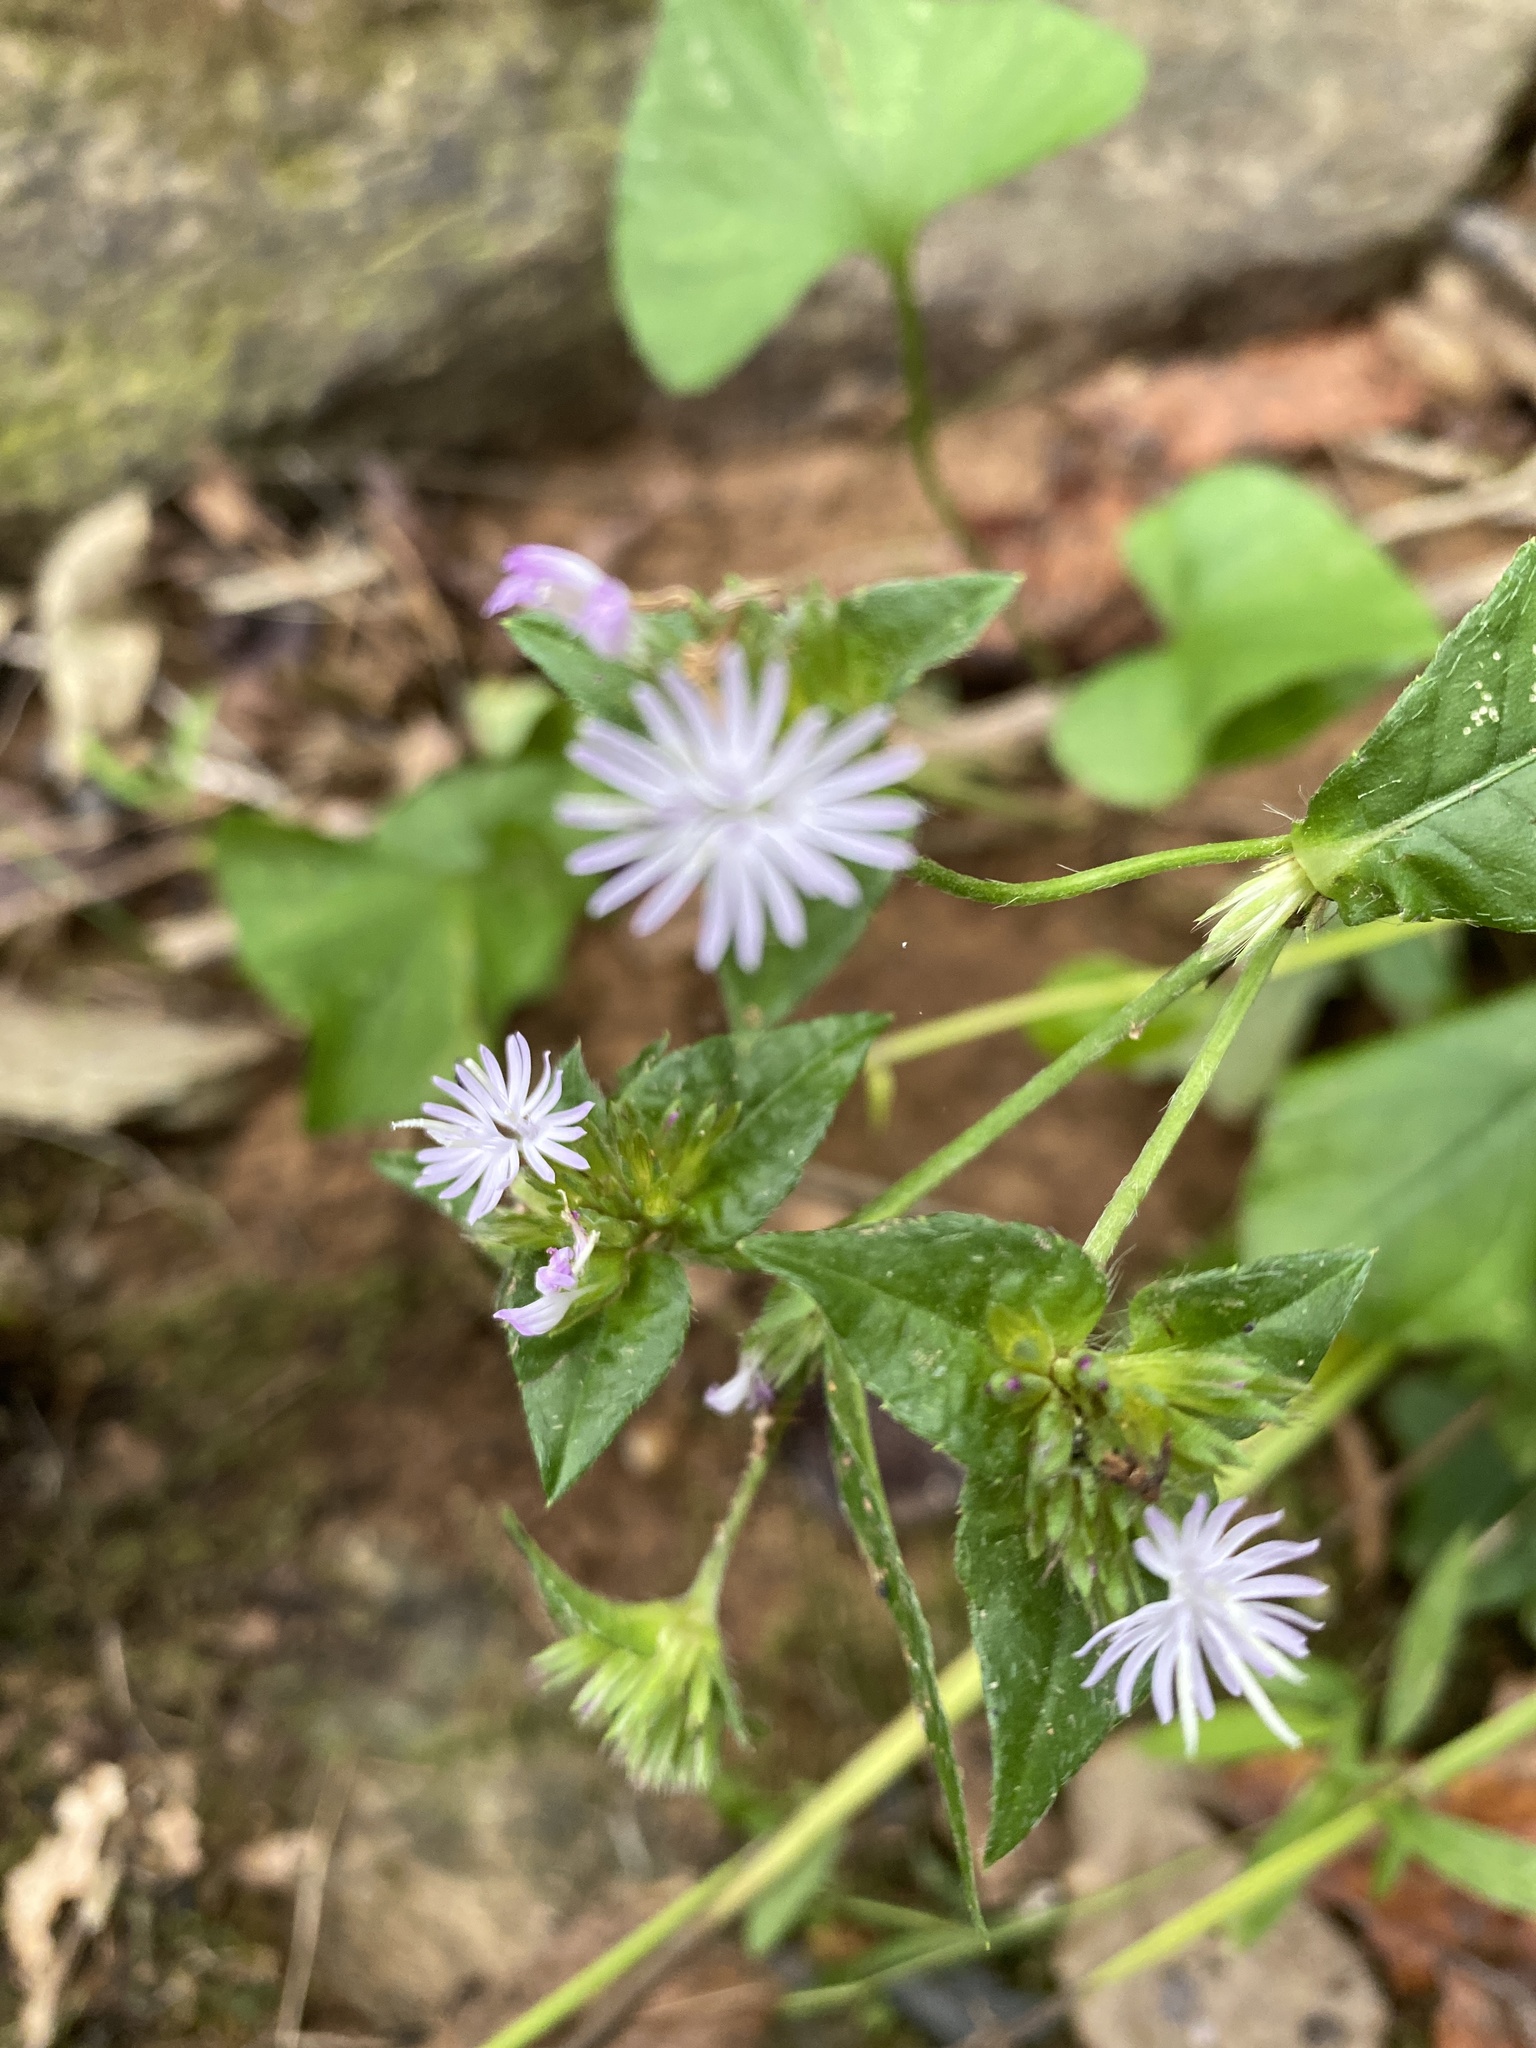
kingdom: Plantae
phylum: Tracheophyta
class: Magnoliopsida
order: Asterales
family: Asteraceae
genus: Elephantopus
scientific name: Elephantopus carolinianus
